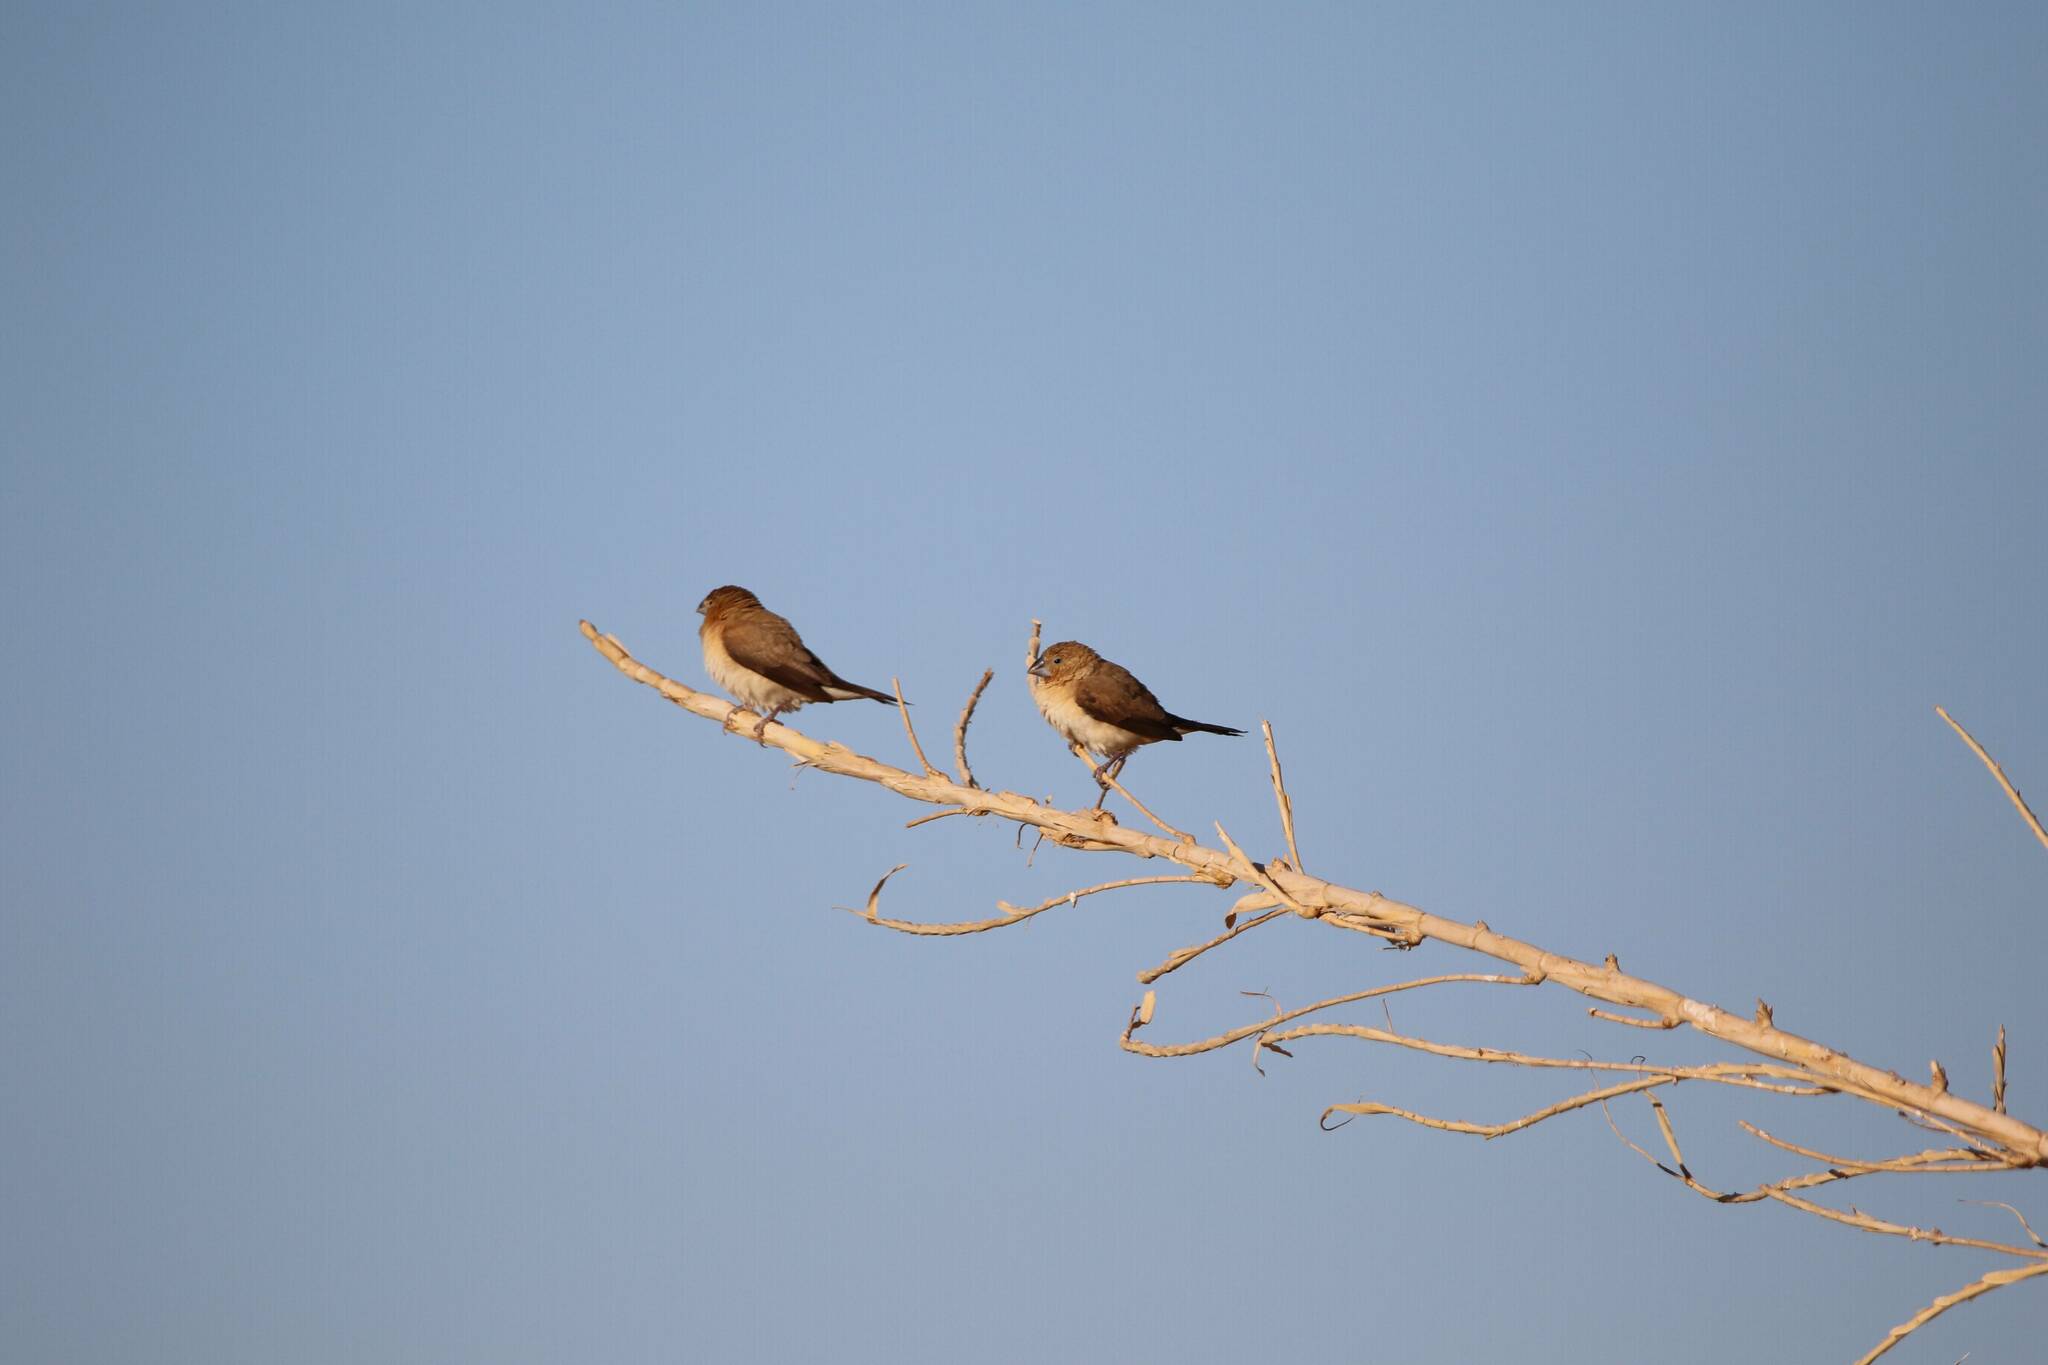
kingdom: Animalia
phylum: Chordata
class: Aves
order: Passeriformes
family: Estrildidae
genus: Euodice
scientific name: Euodice cantans
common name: African silverbill
